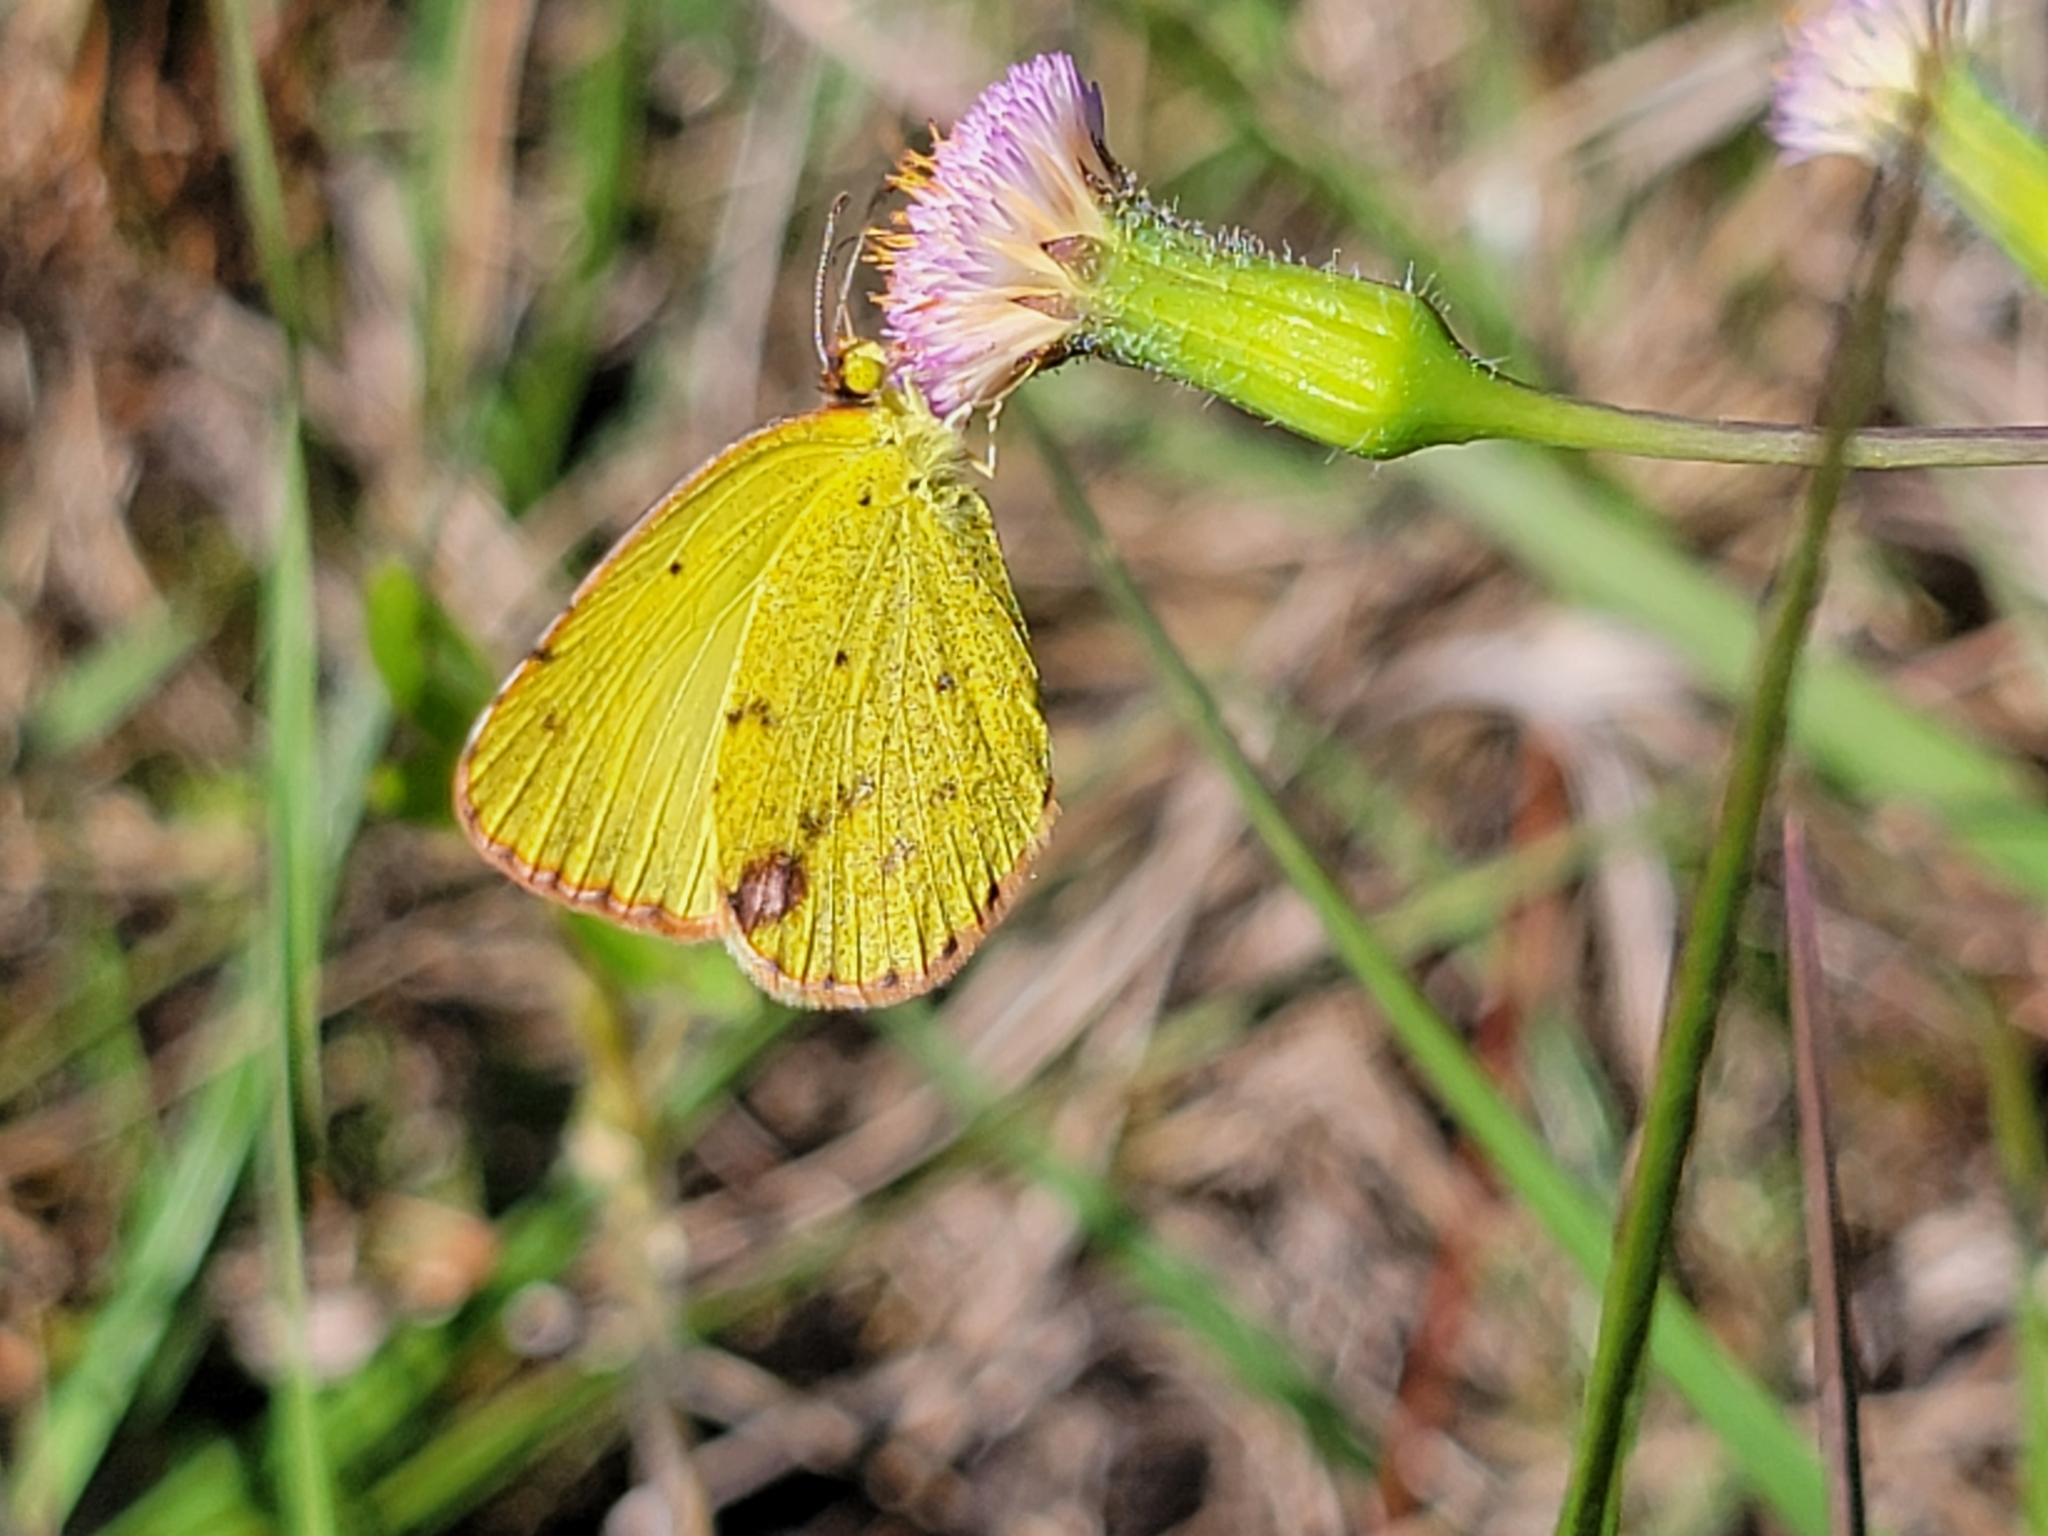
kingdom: Animalia
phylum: Arthropoda
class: Insecta
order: Lepidoptera
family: Pieridae
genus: Pyrisitia
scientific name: Pyrisitia lisa
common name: Little yellow
